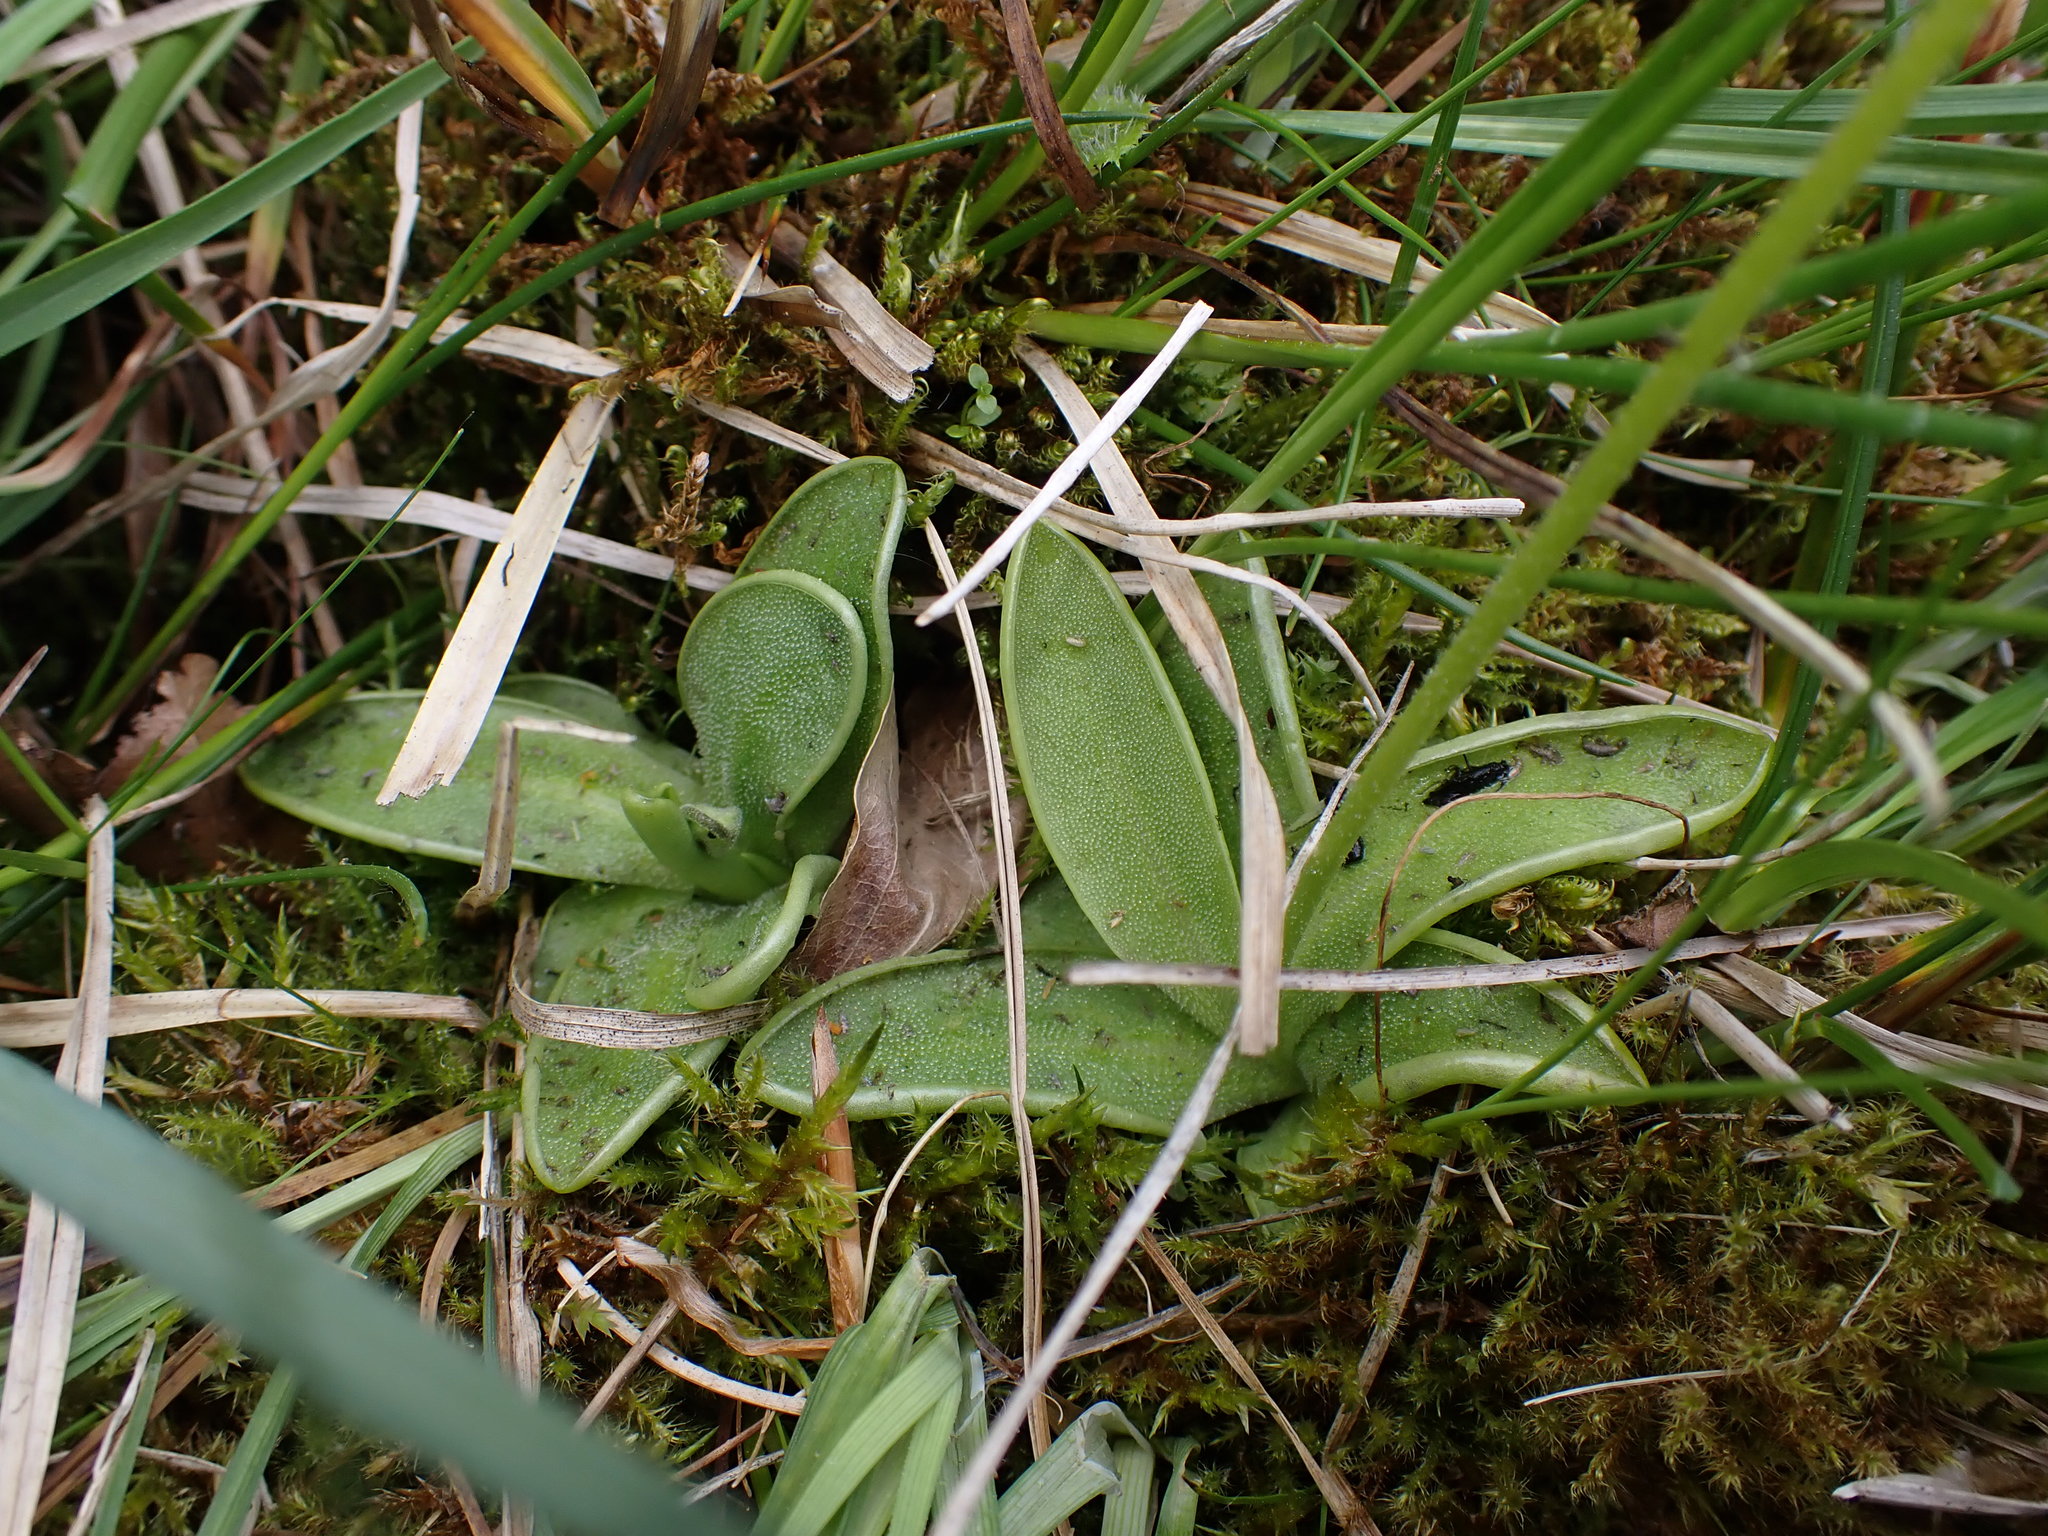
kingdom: Plantae
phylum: Tracheophyta
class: Magnoliopsida
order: Lamiales
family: Lentibulariaceae
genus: Pinguicula
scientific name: Pinguicula vulgaris
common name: Common butterwort
